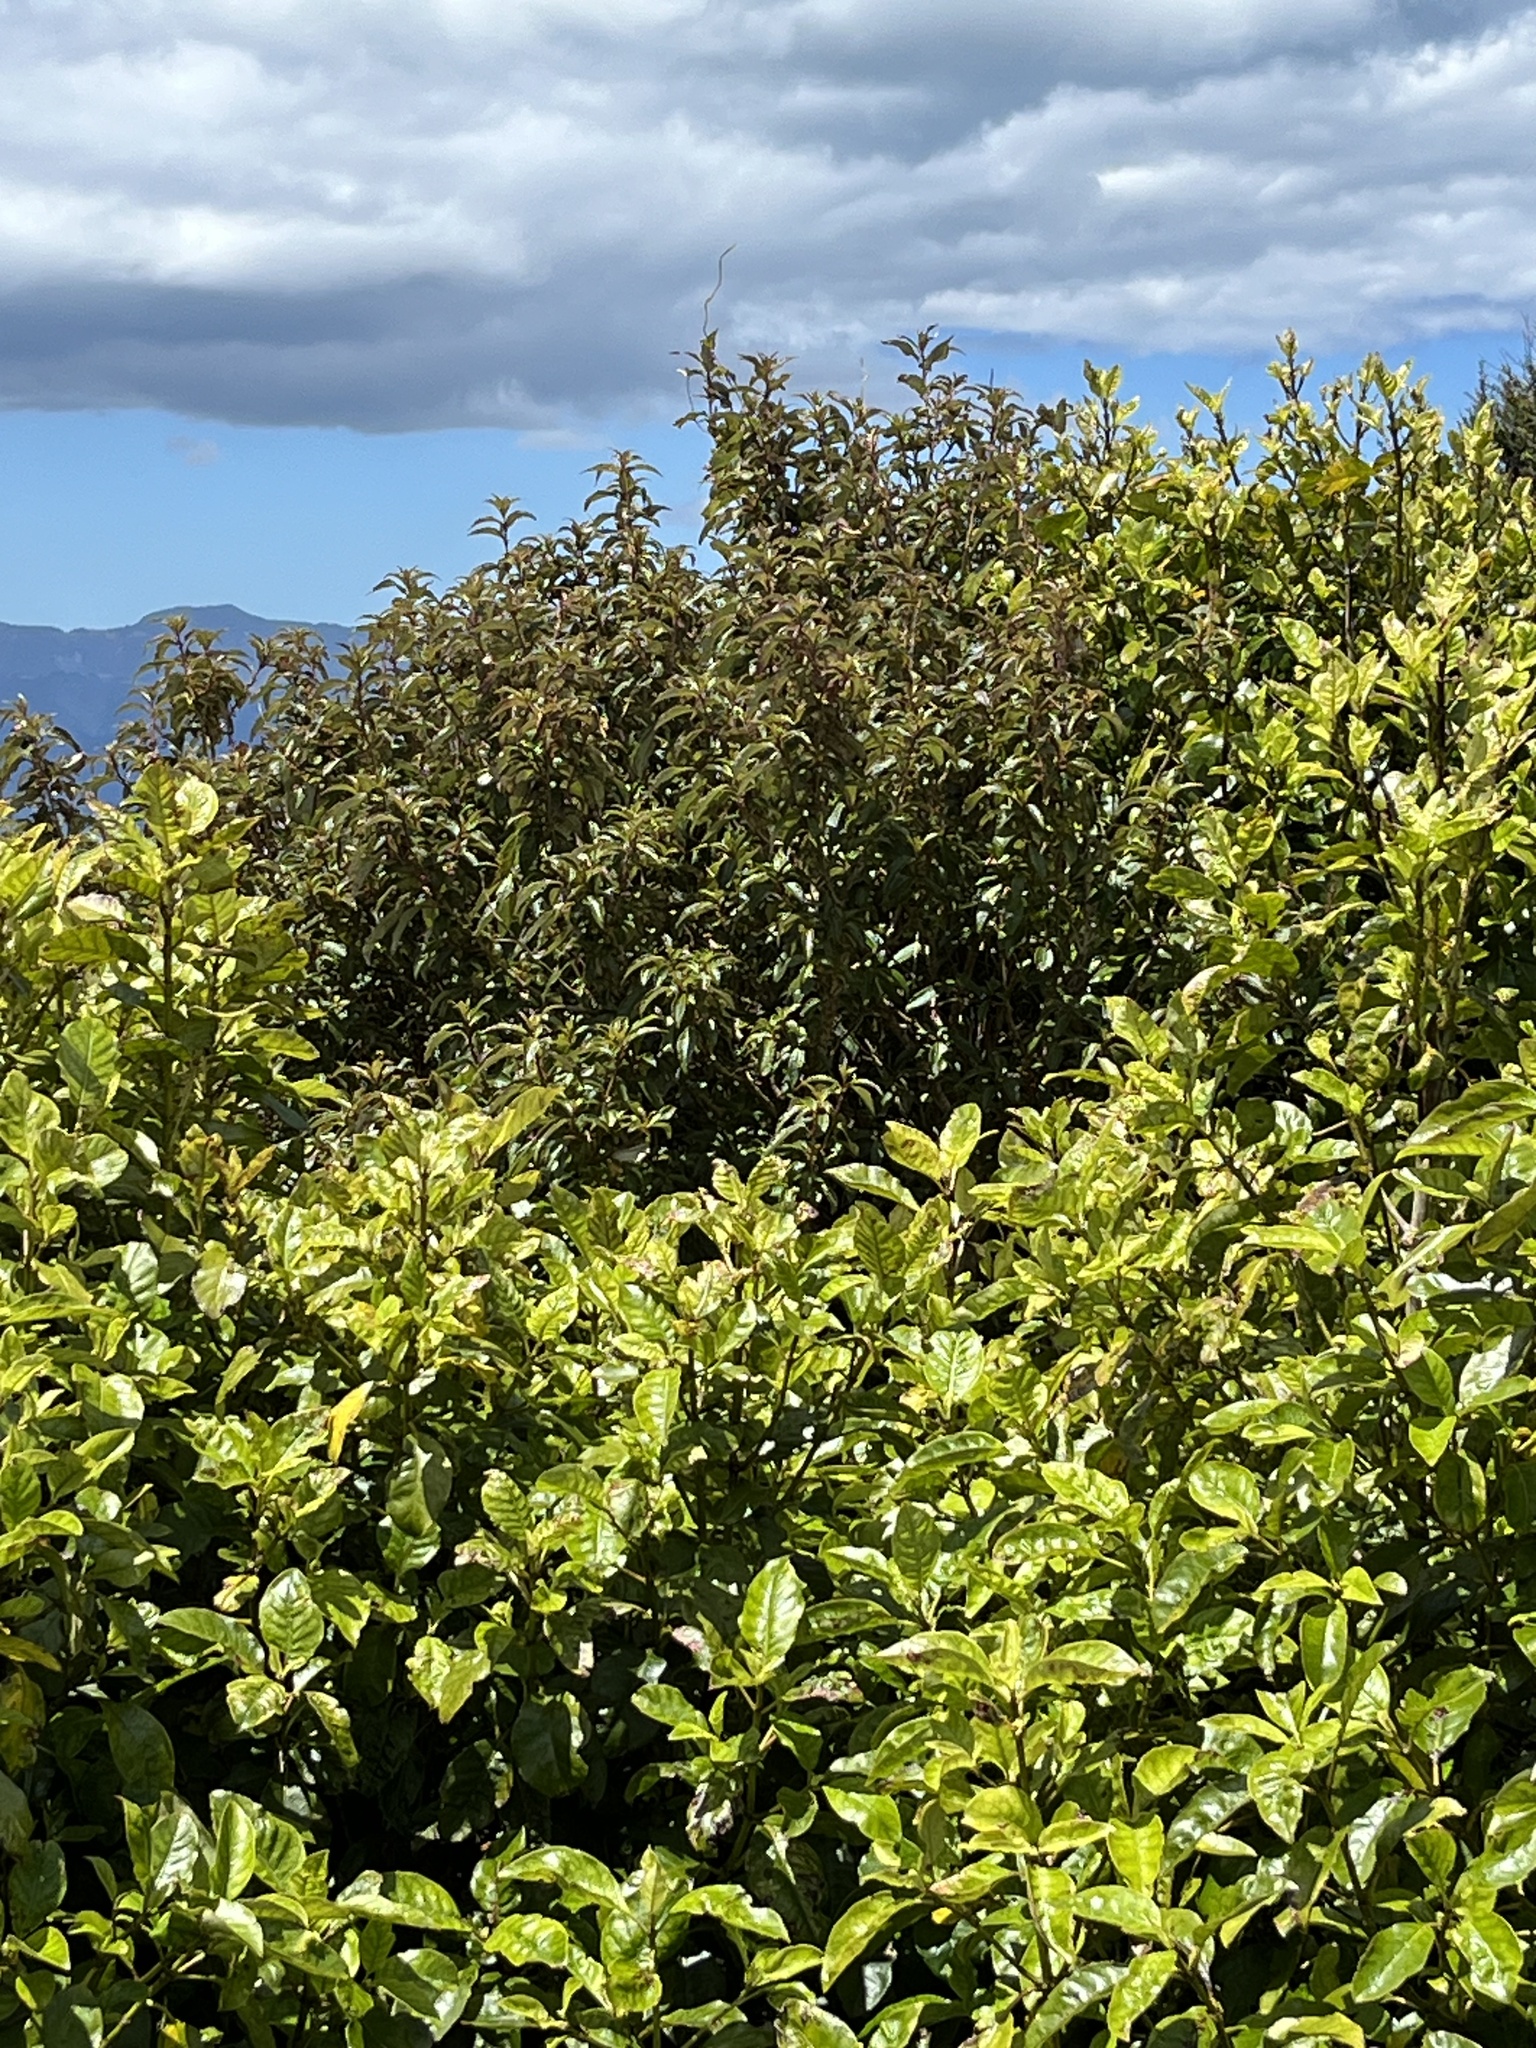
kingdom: Plantae
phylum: Tracheophyta
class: Magnoliopsida
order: Myrtales
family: Onagraceae
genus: Fuchsia
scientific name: Fuchsia excorticata
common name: Tree fuchsia
